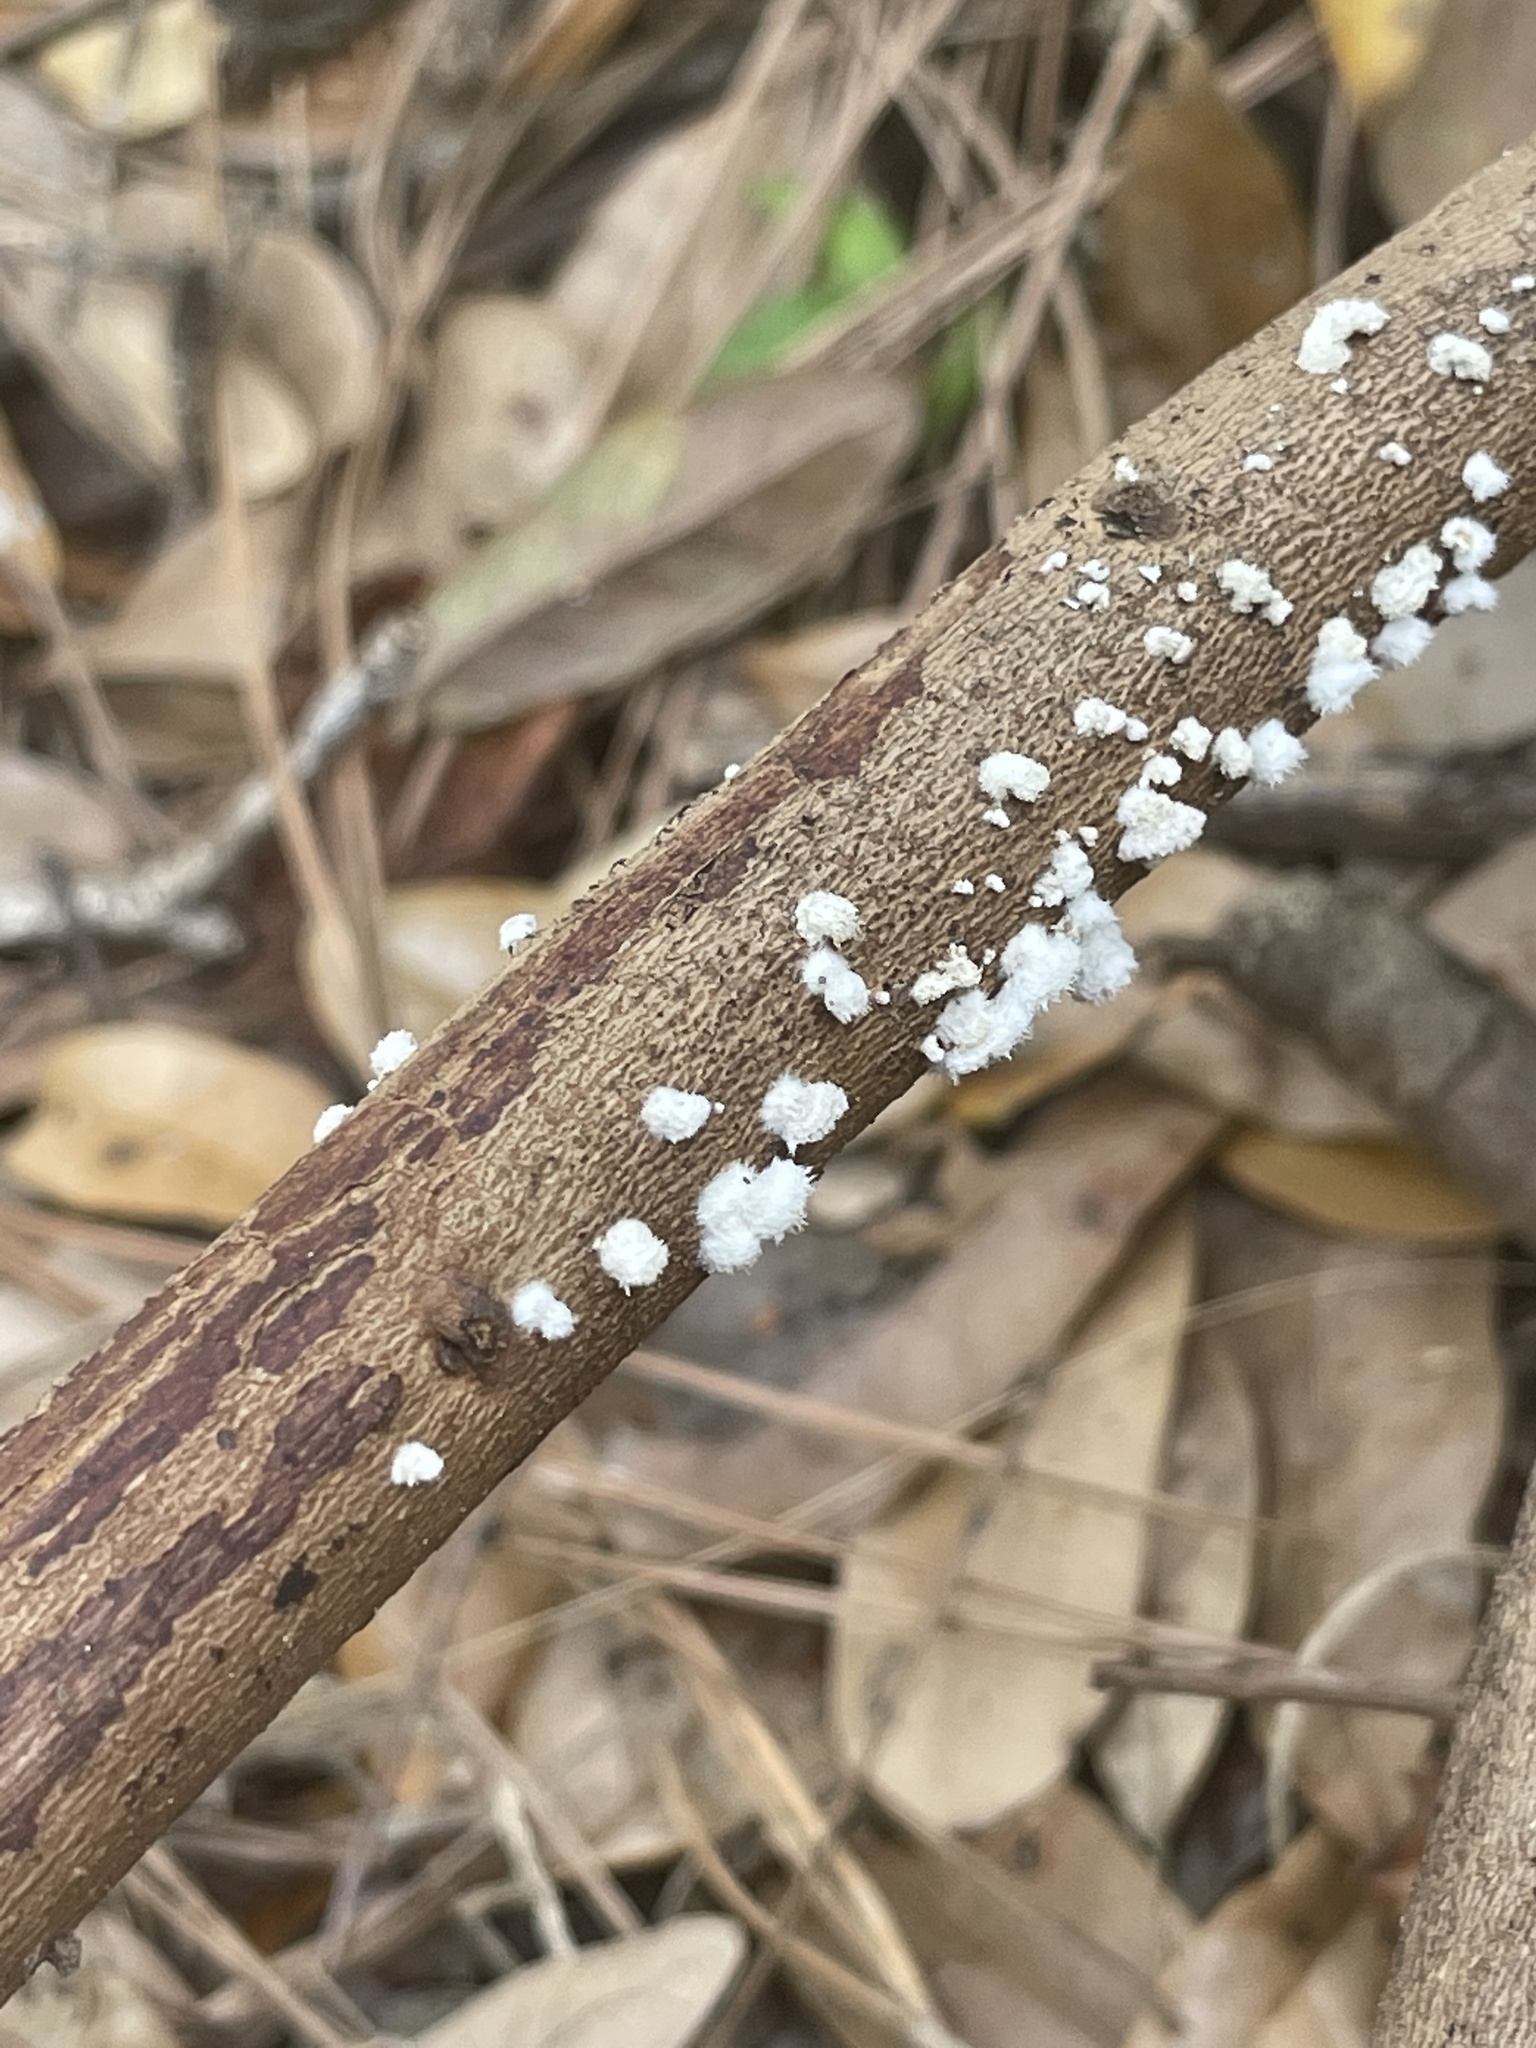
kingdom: Fungi
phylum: Basidiomycota
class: Agaricomycetes
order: Agaricales
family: Schizophyllaceae
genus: Schizophyllum
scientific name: Schizophyllum commune
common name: Common porecrust
